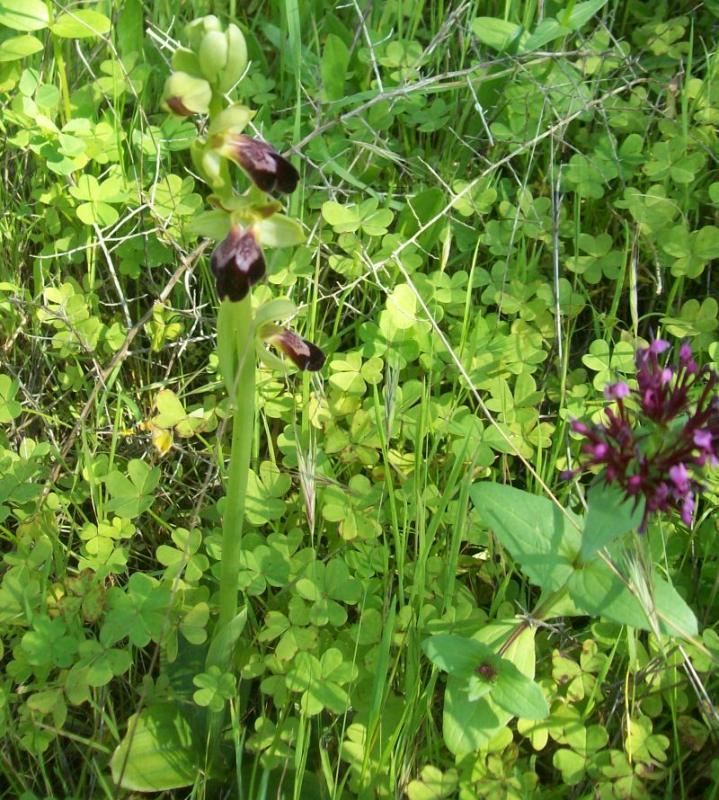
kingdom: Plantae
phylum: Tracheophyta
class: Liliopsida
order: Asparagales
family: Orchidaceae
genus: Ophrys
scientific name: Ophrys fusca
